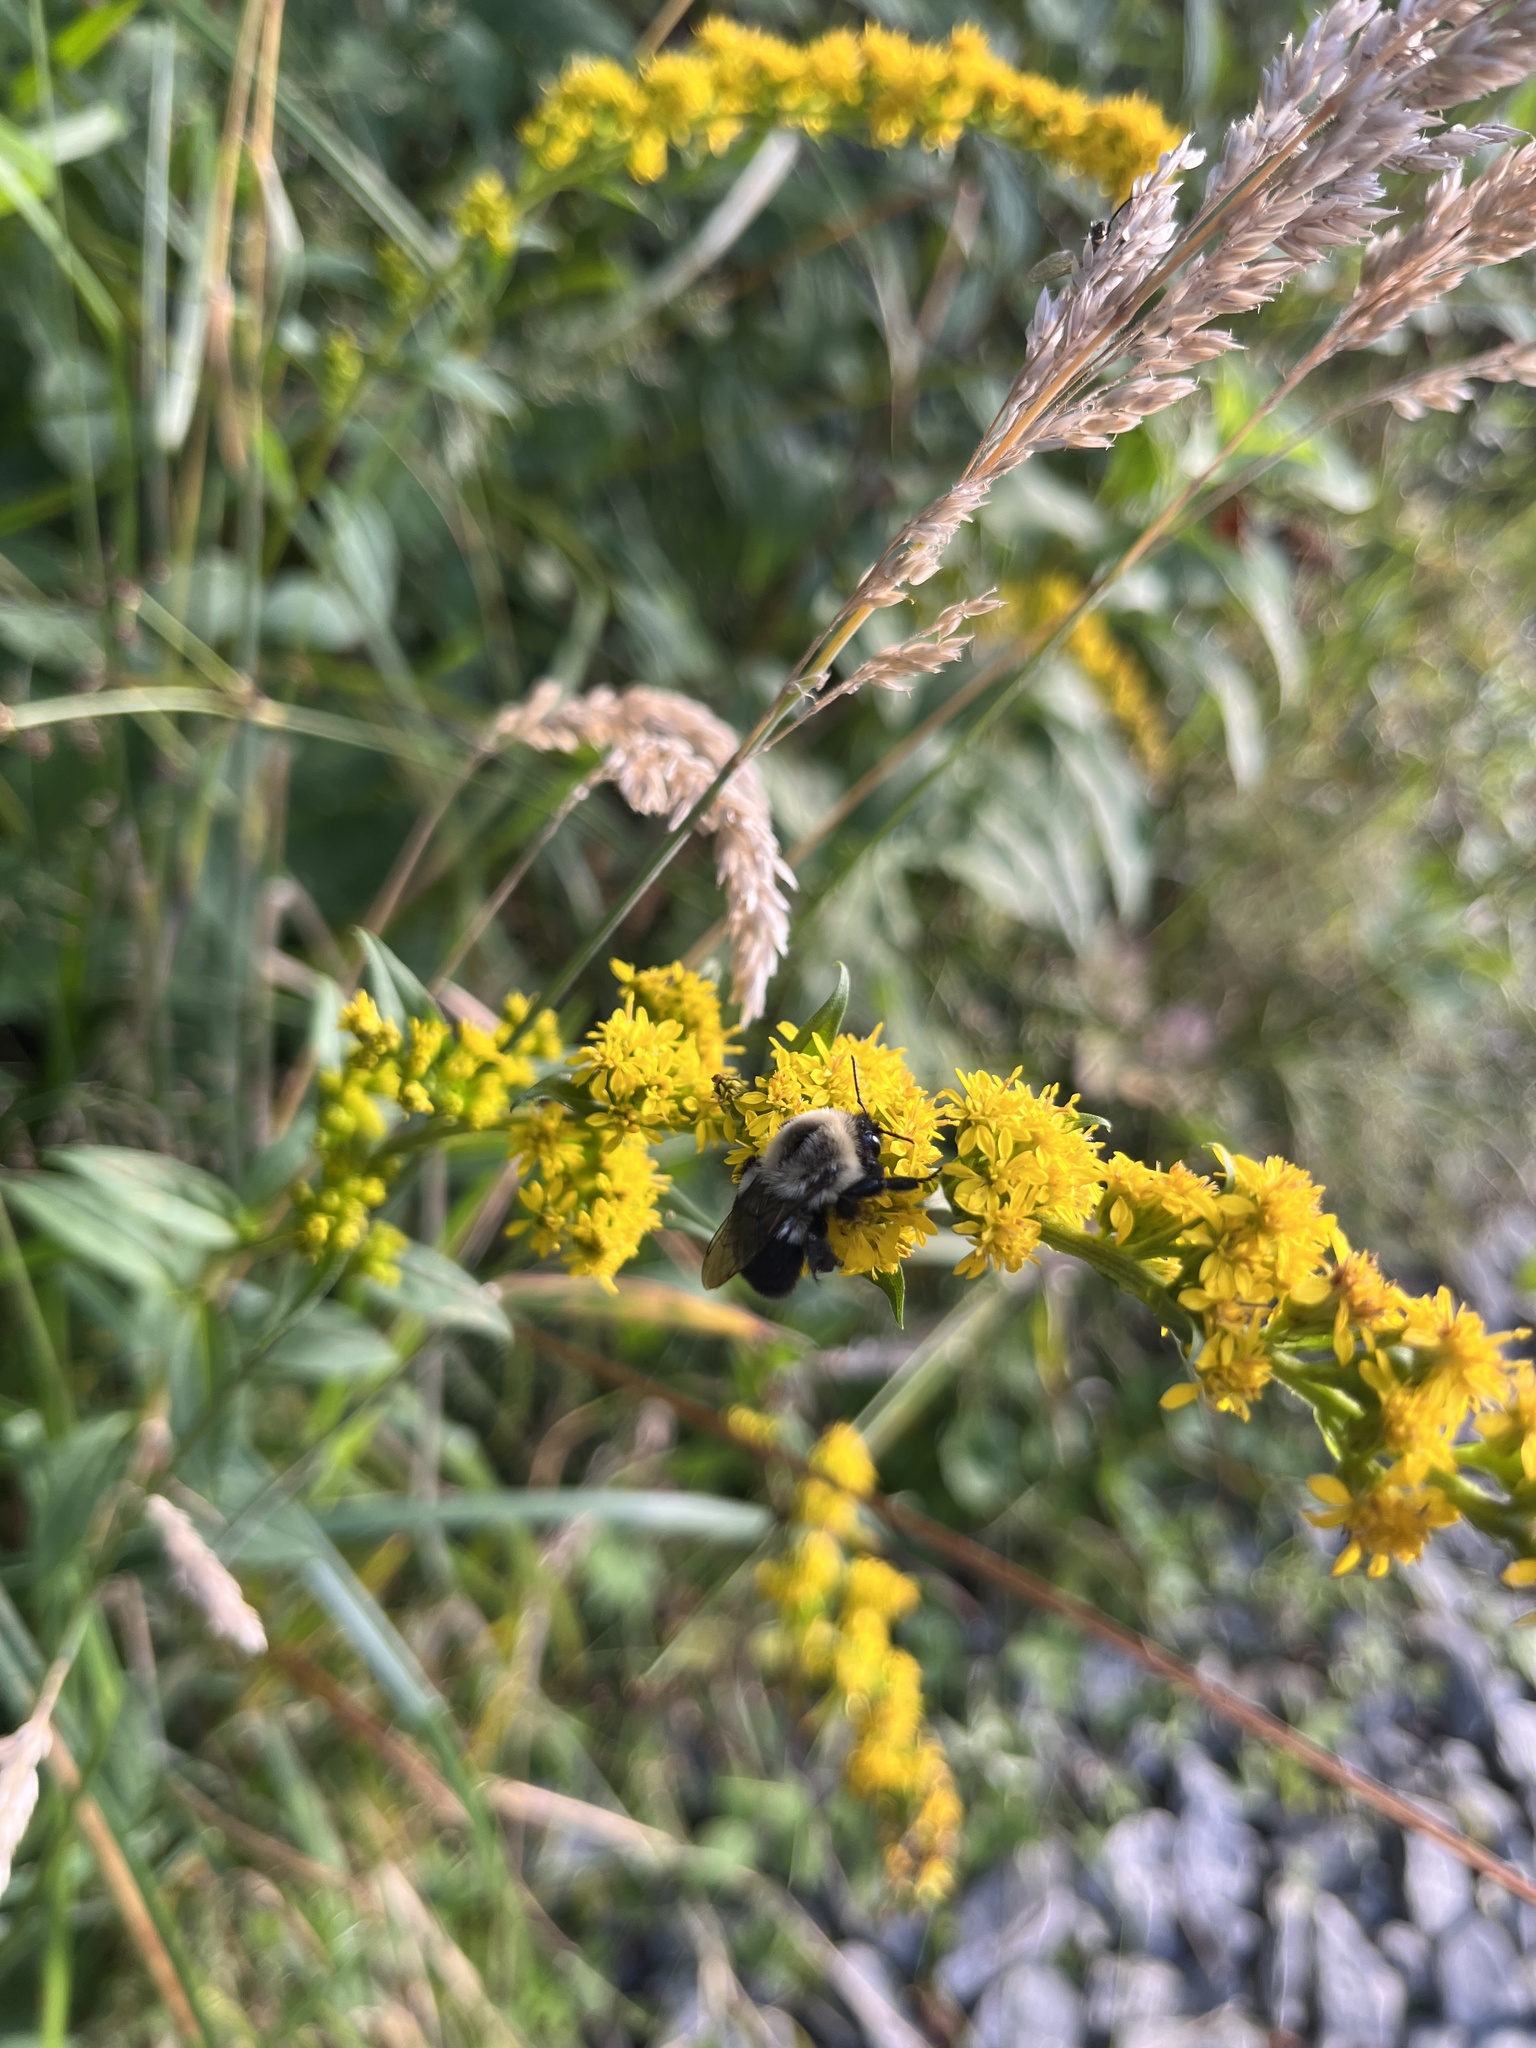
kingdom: Animalia
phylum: Arthropoda
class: Insecta
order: Hymenoptera
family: Apidae
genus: Bombus
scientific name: Bombus impatiens
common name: Common eastern bumble bee
